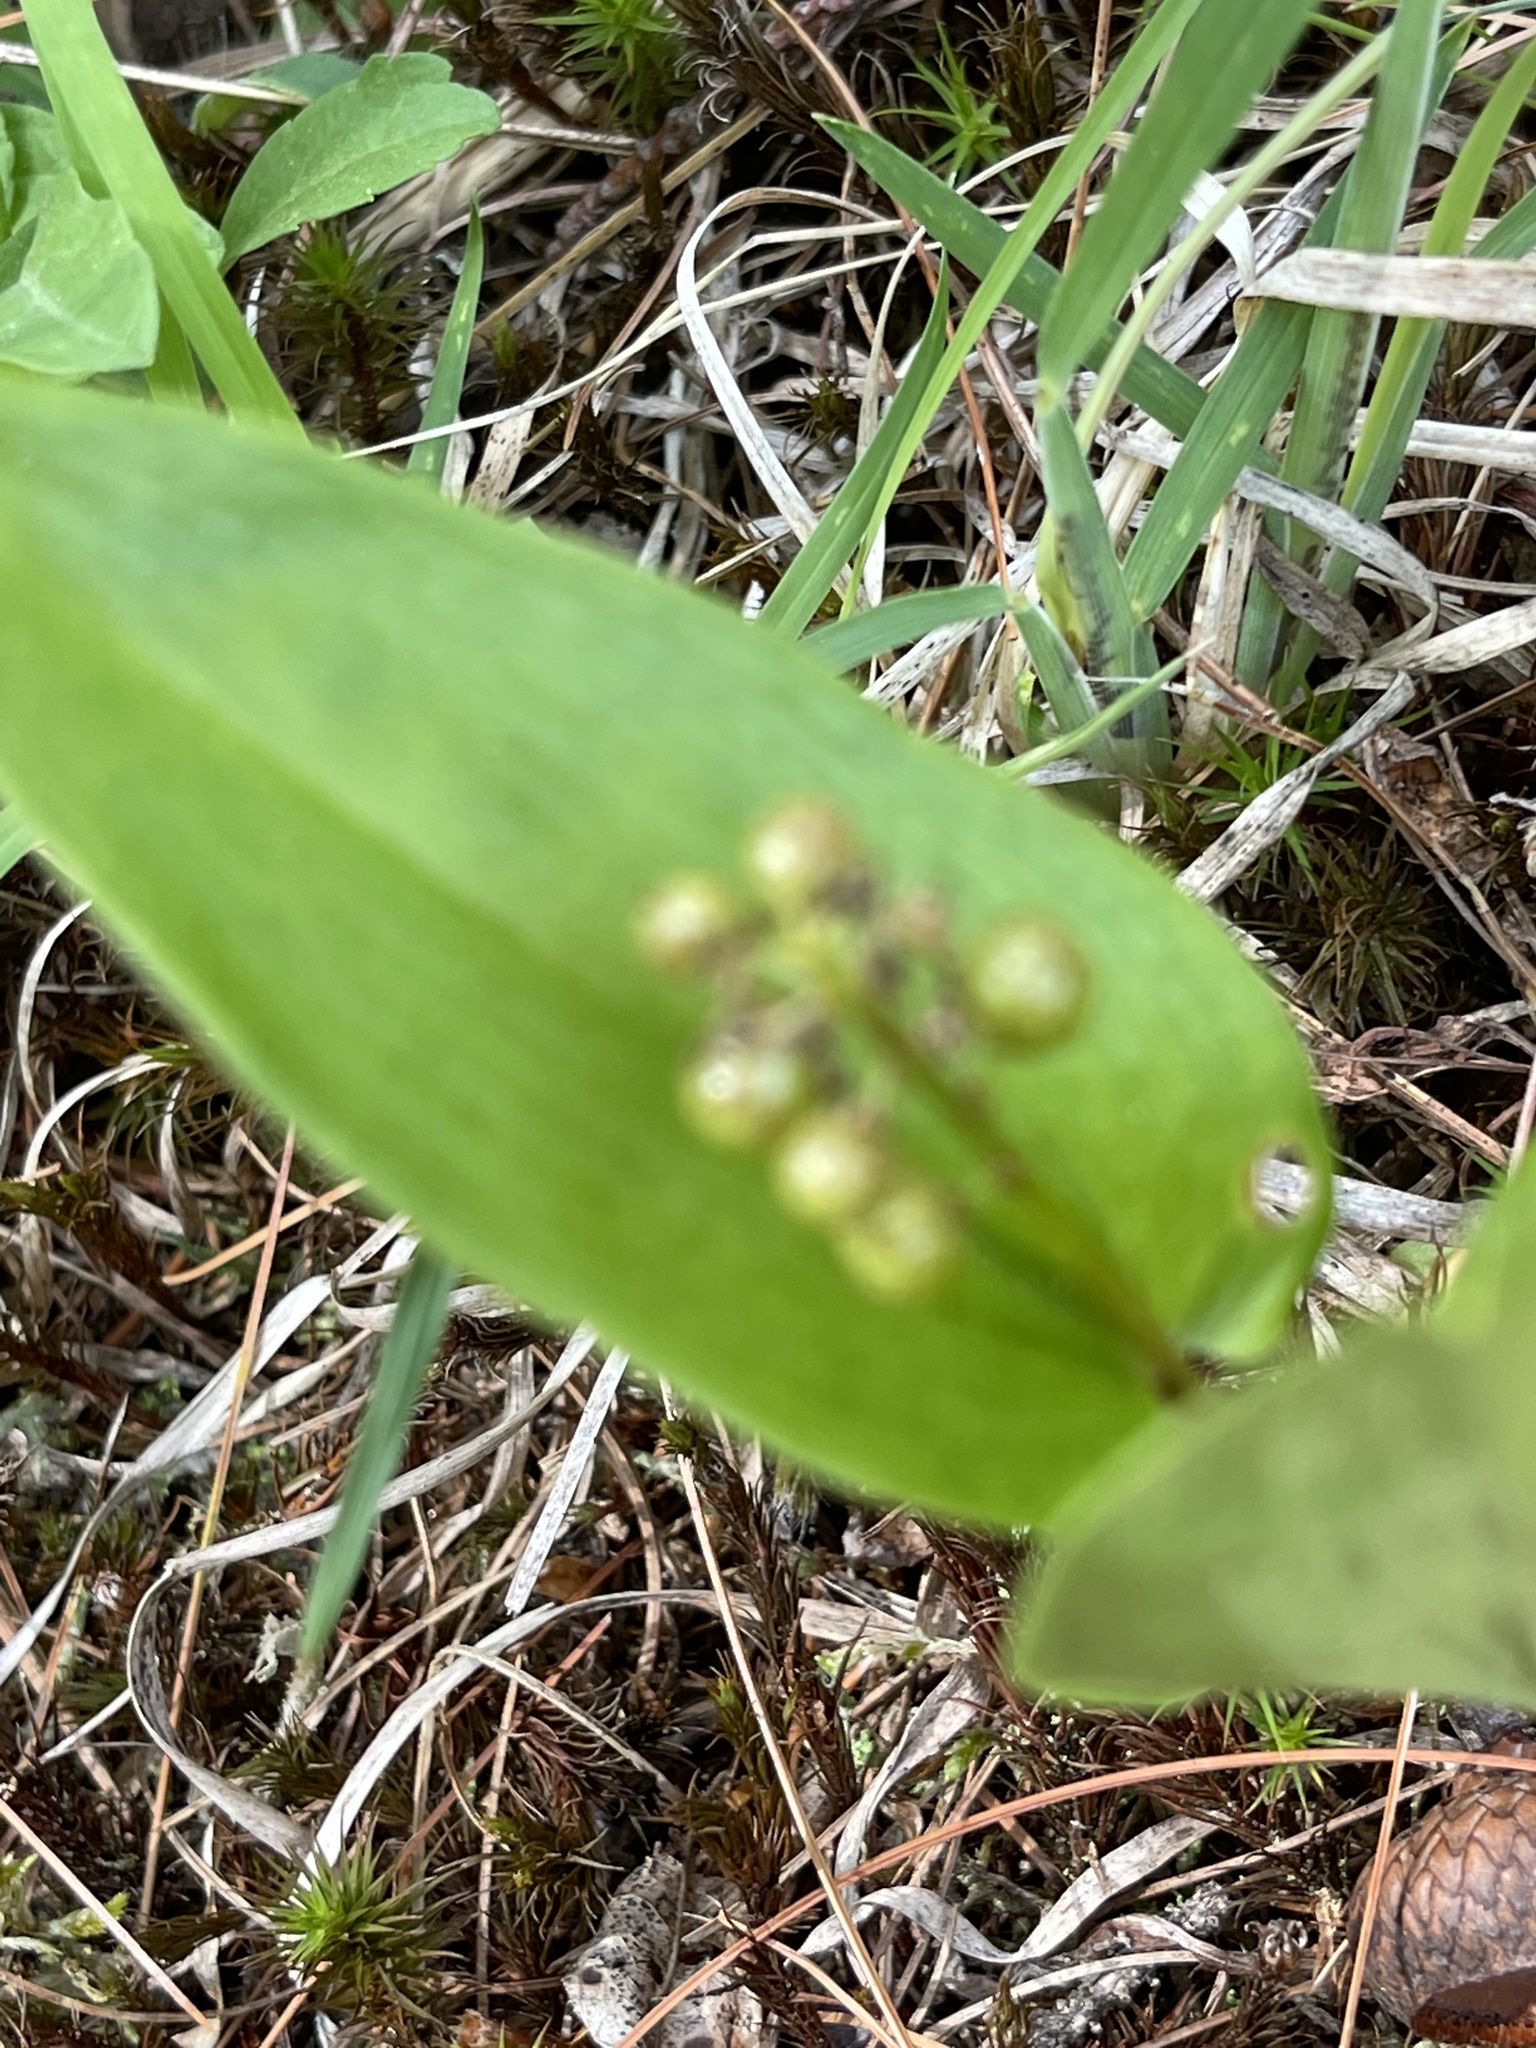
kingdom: Plantae
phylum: Tracheophyta
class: Liliopsida
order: Asparagales
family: Asparagaceae
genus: Maianthemum
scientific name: Maianthemum canadense
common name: False lily-of-the-valley
